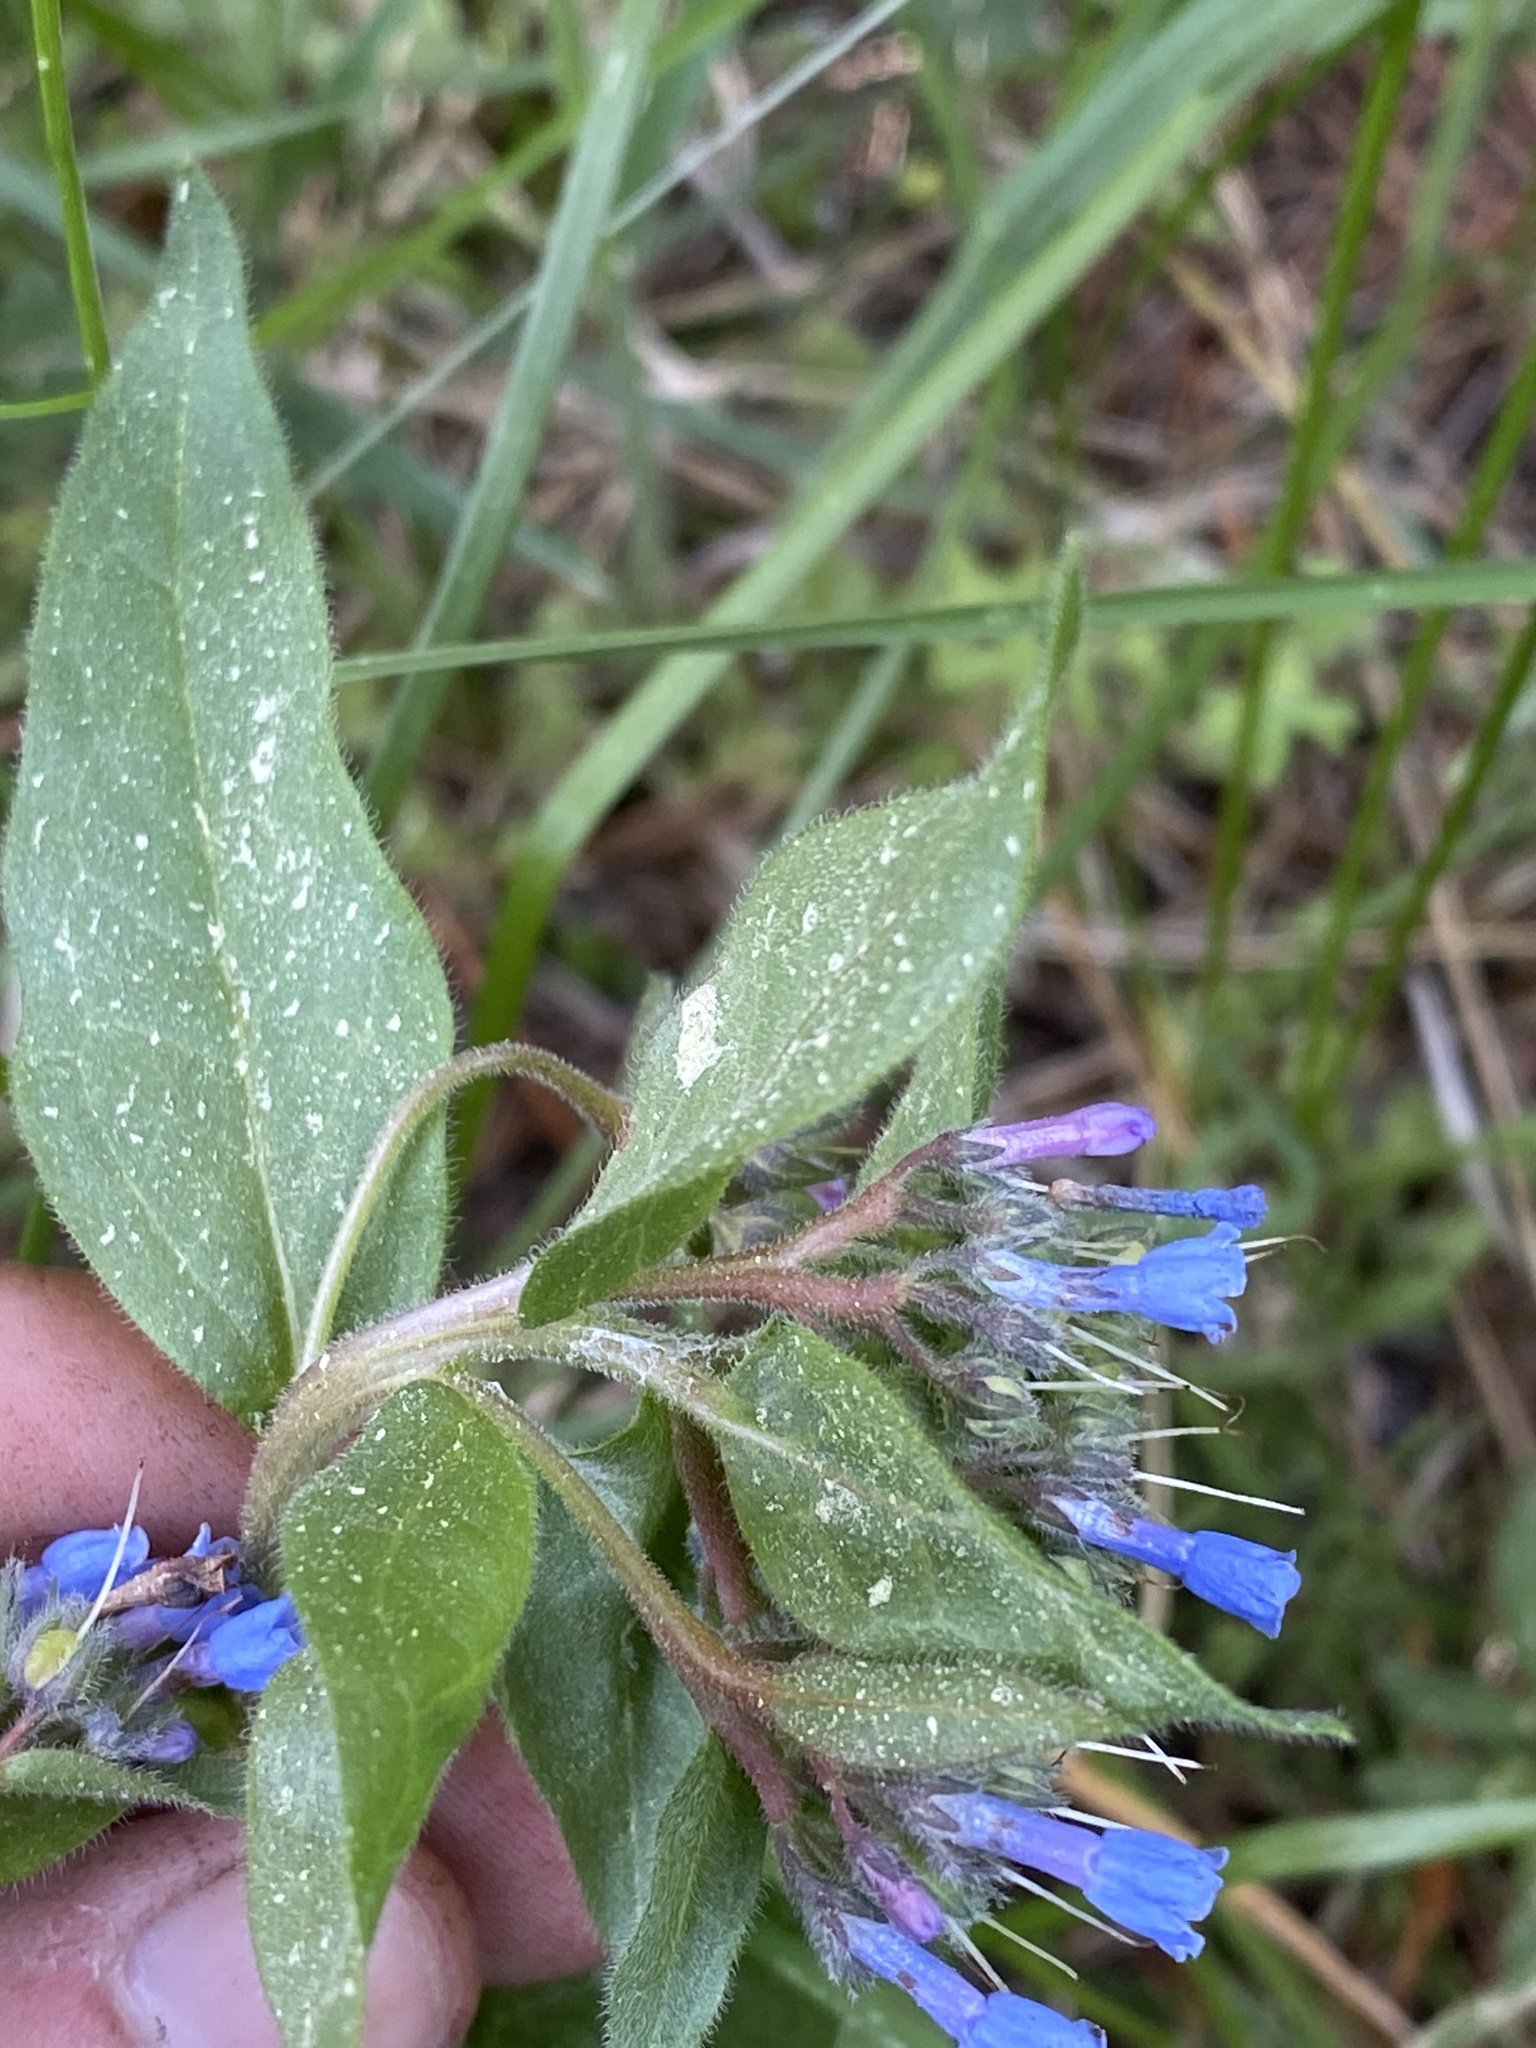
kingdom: Plantae
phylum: Tracheophyta
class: Magnoliopsida
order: Boraginales
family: Boraginaceae
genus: Mertensia
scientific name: Mertensia cusickii
